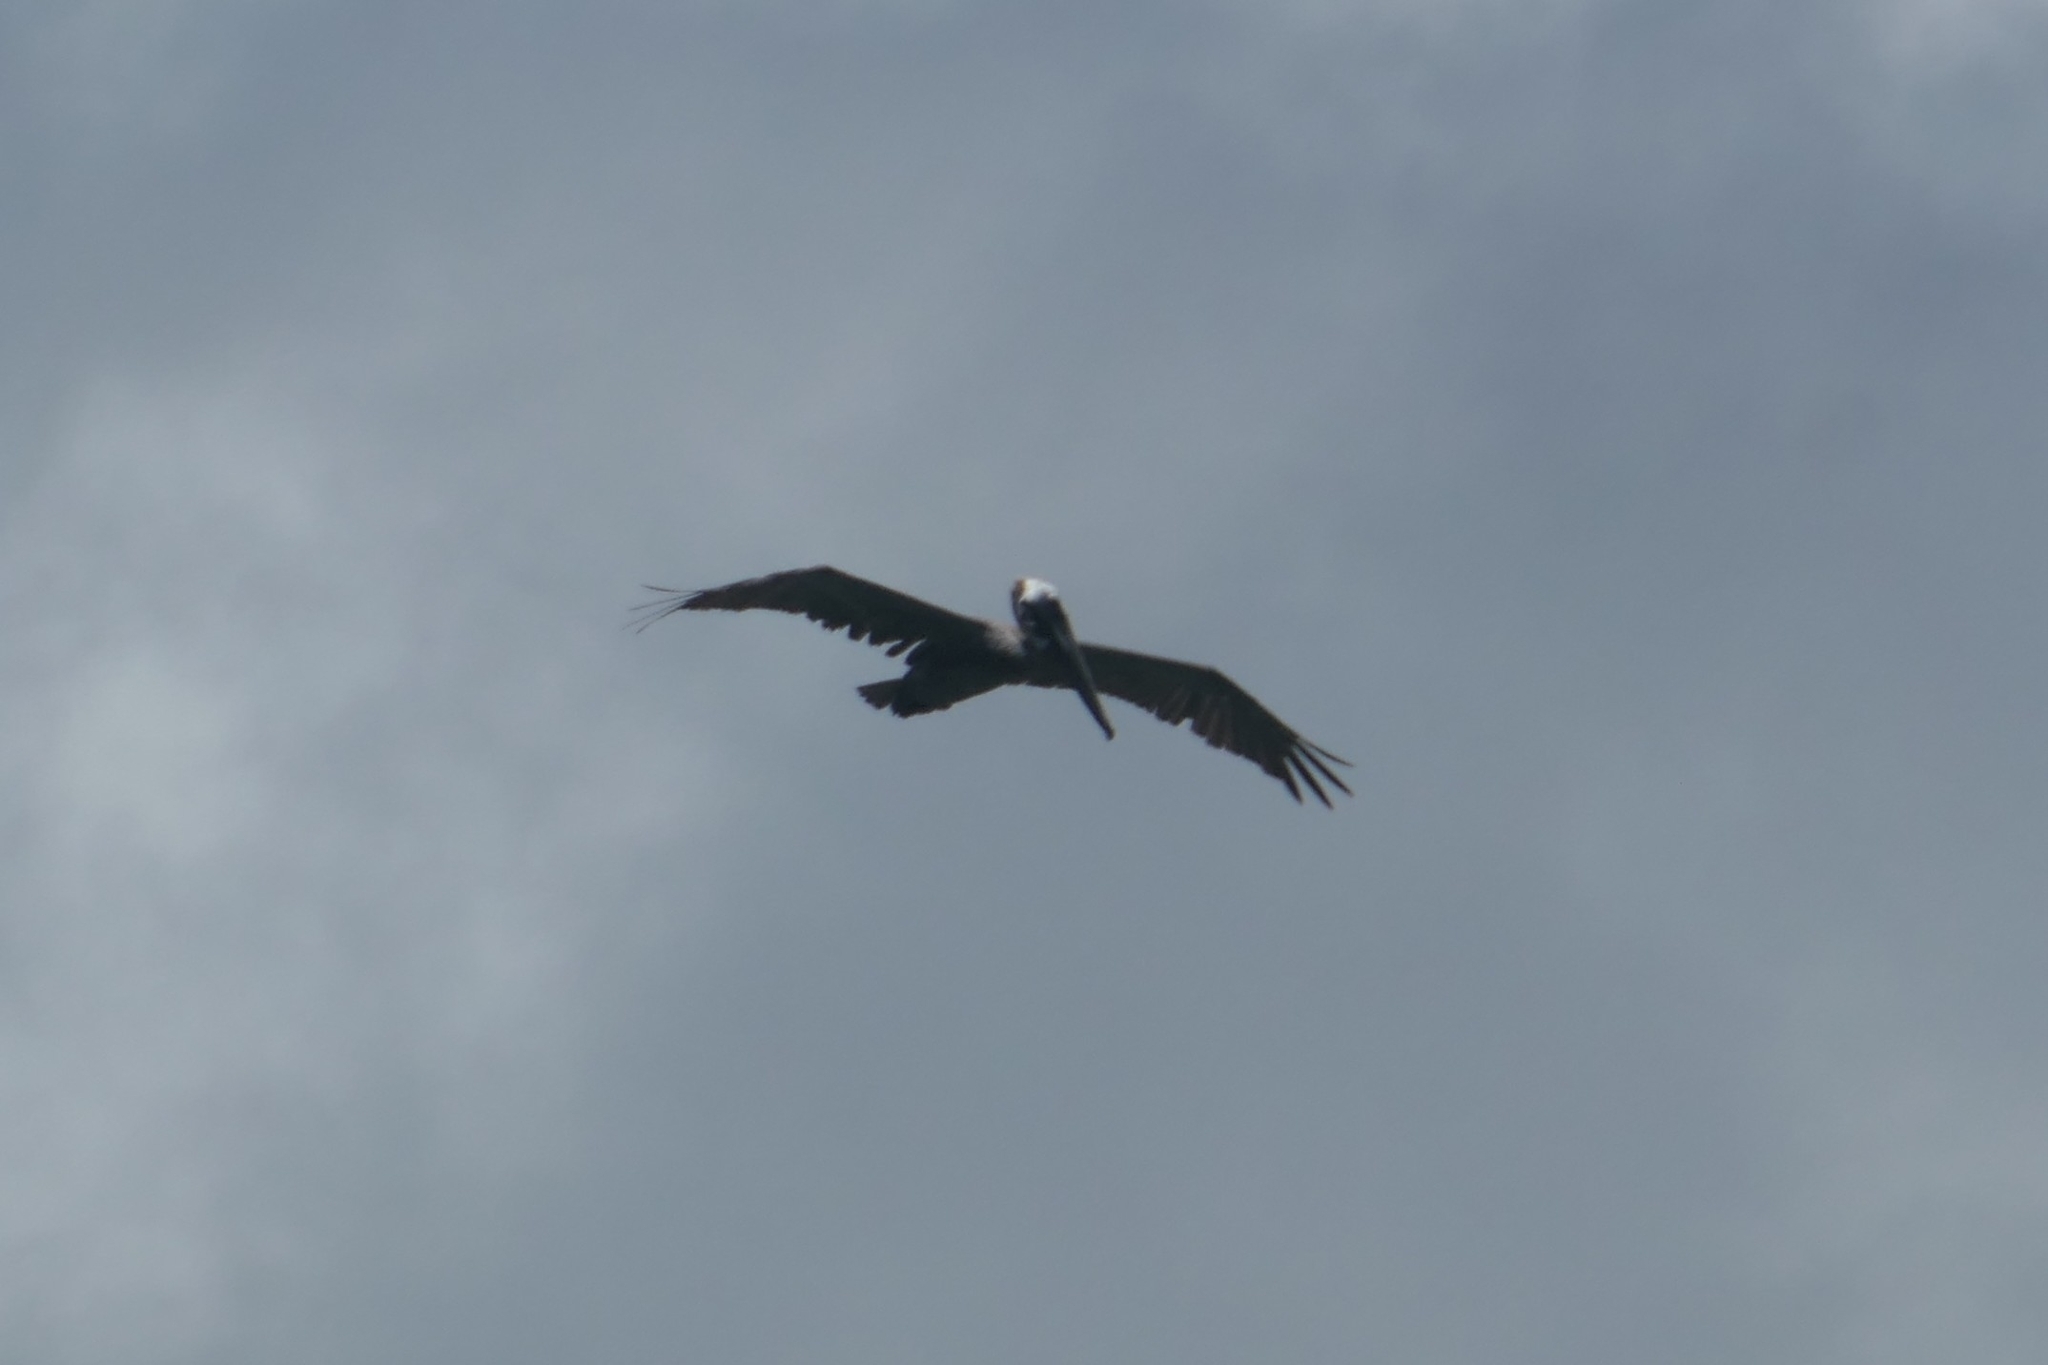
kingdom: Animalia
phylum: Chordata
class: Aves
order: Pelecaniformes
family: Pelecanidae
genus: Pelecanus
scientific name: Pelecanus occidentalis
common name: Brown pelican
